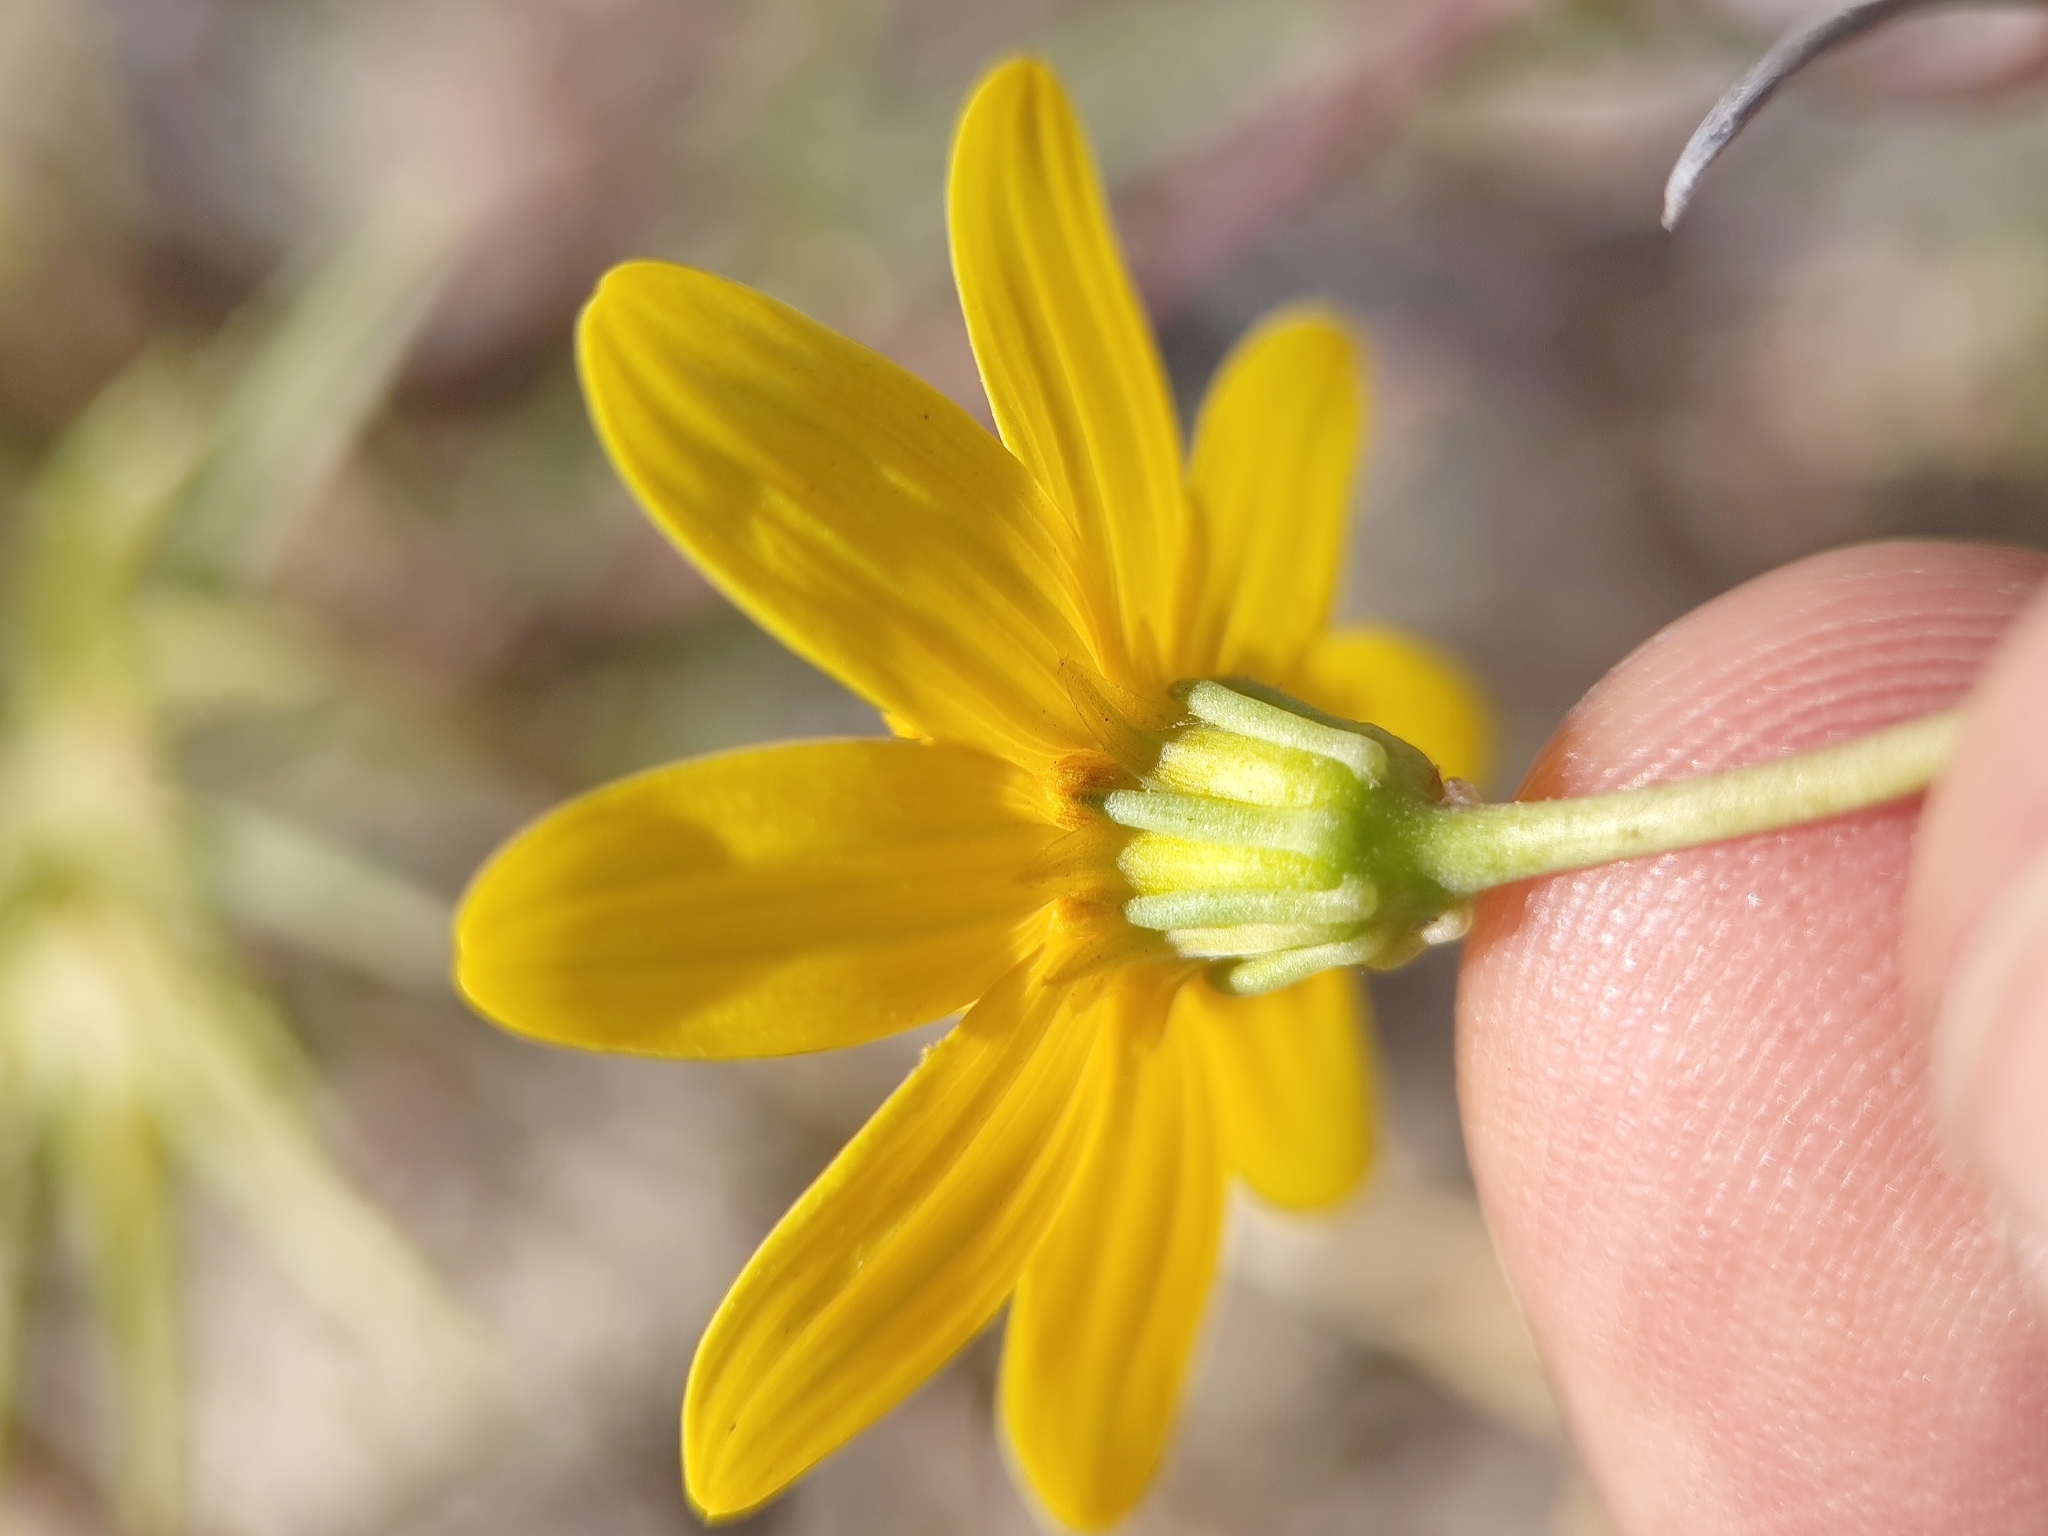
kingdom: Plantae
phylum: Tracheophyta
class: Magnoliopsida
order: Asterales
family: Asteraceae
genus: Bidens
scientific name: Bidens cabopulmensis
